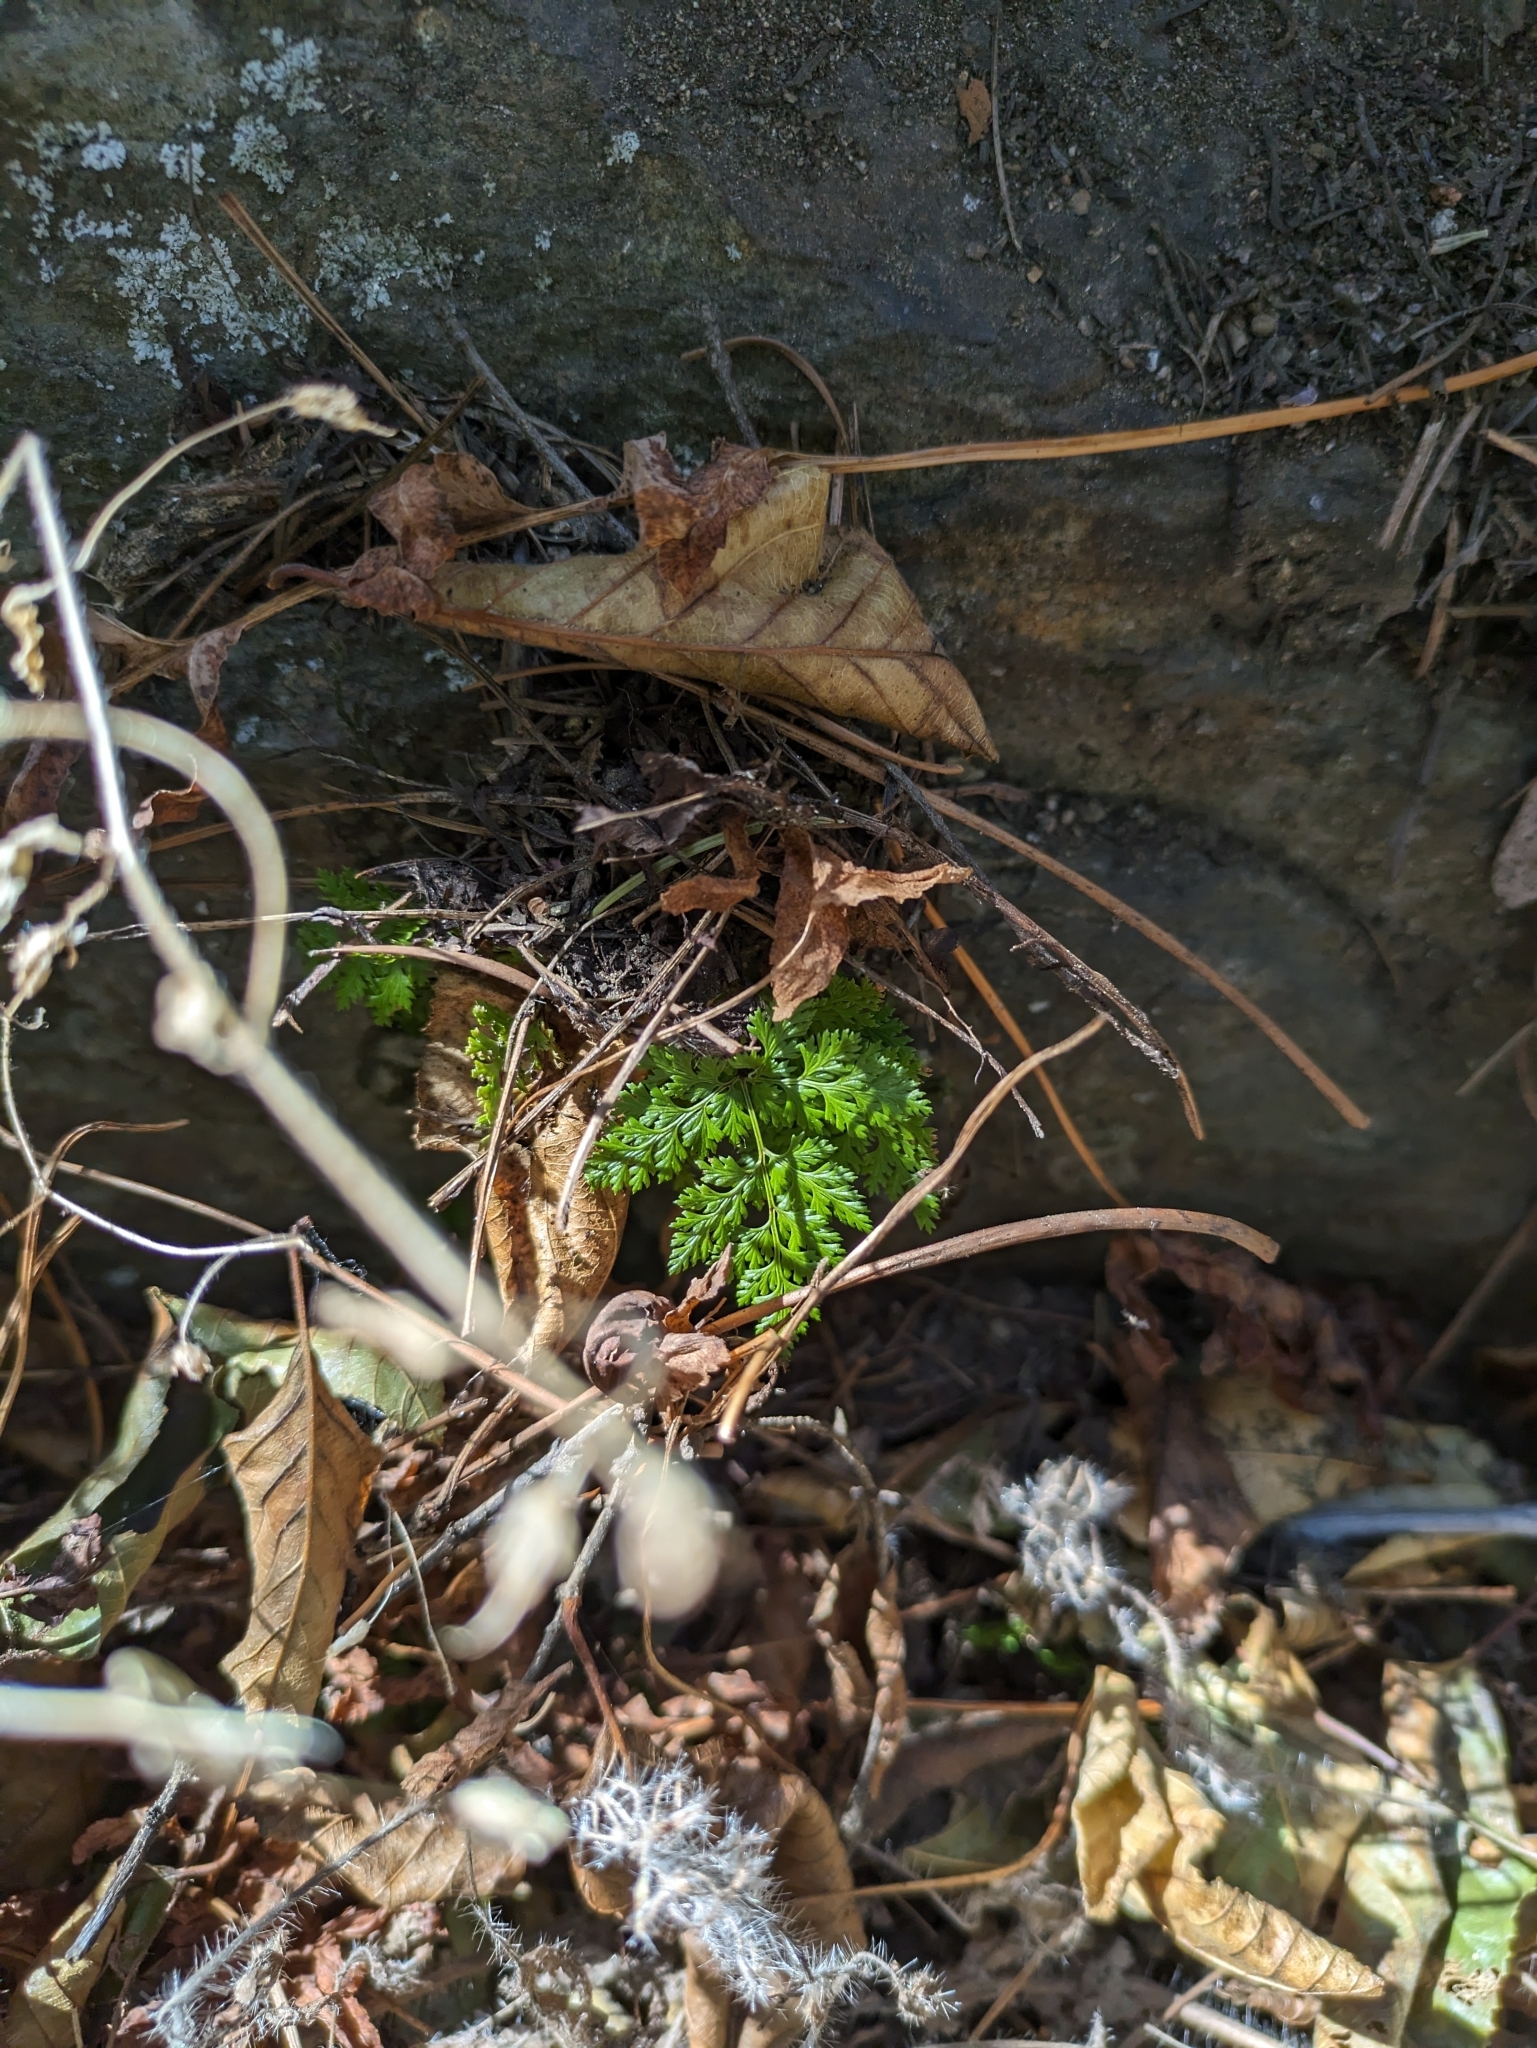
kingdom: Plantae
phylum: Tracheophyta
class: Polypodiopsida
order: Polypodiales
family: Pteridaceae
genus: Aspidotis
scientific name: Aspidotis californica
